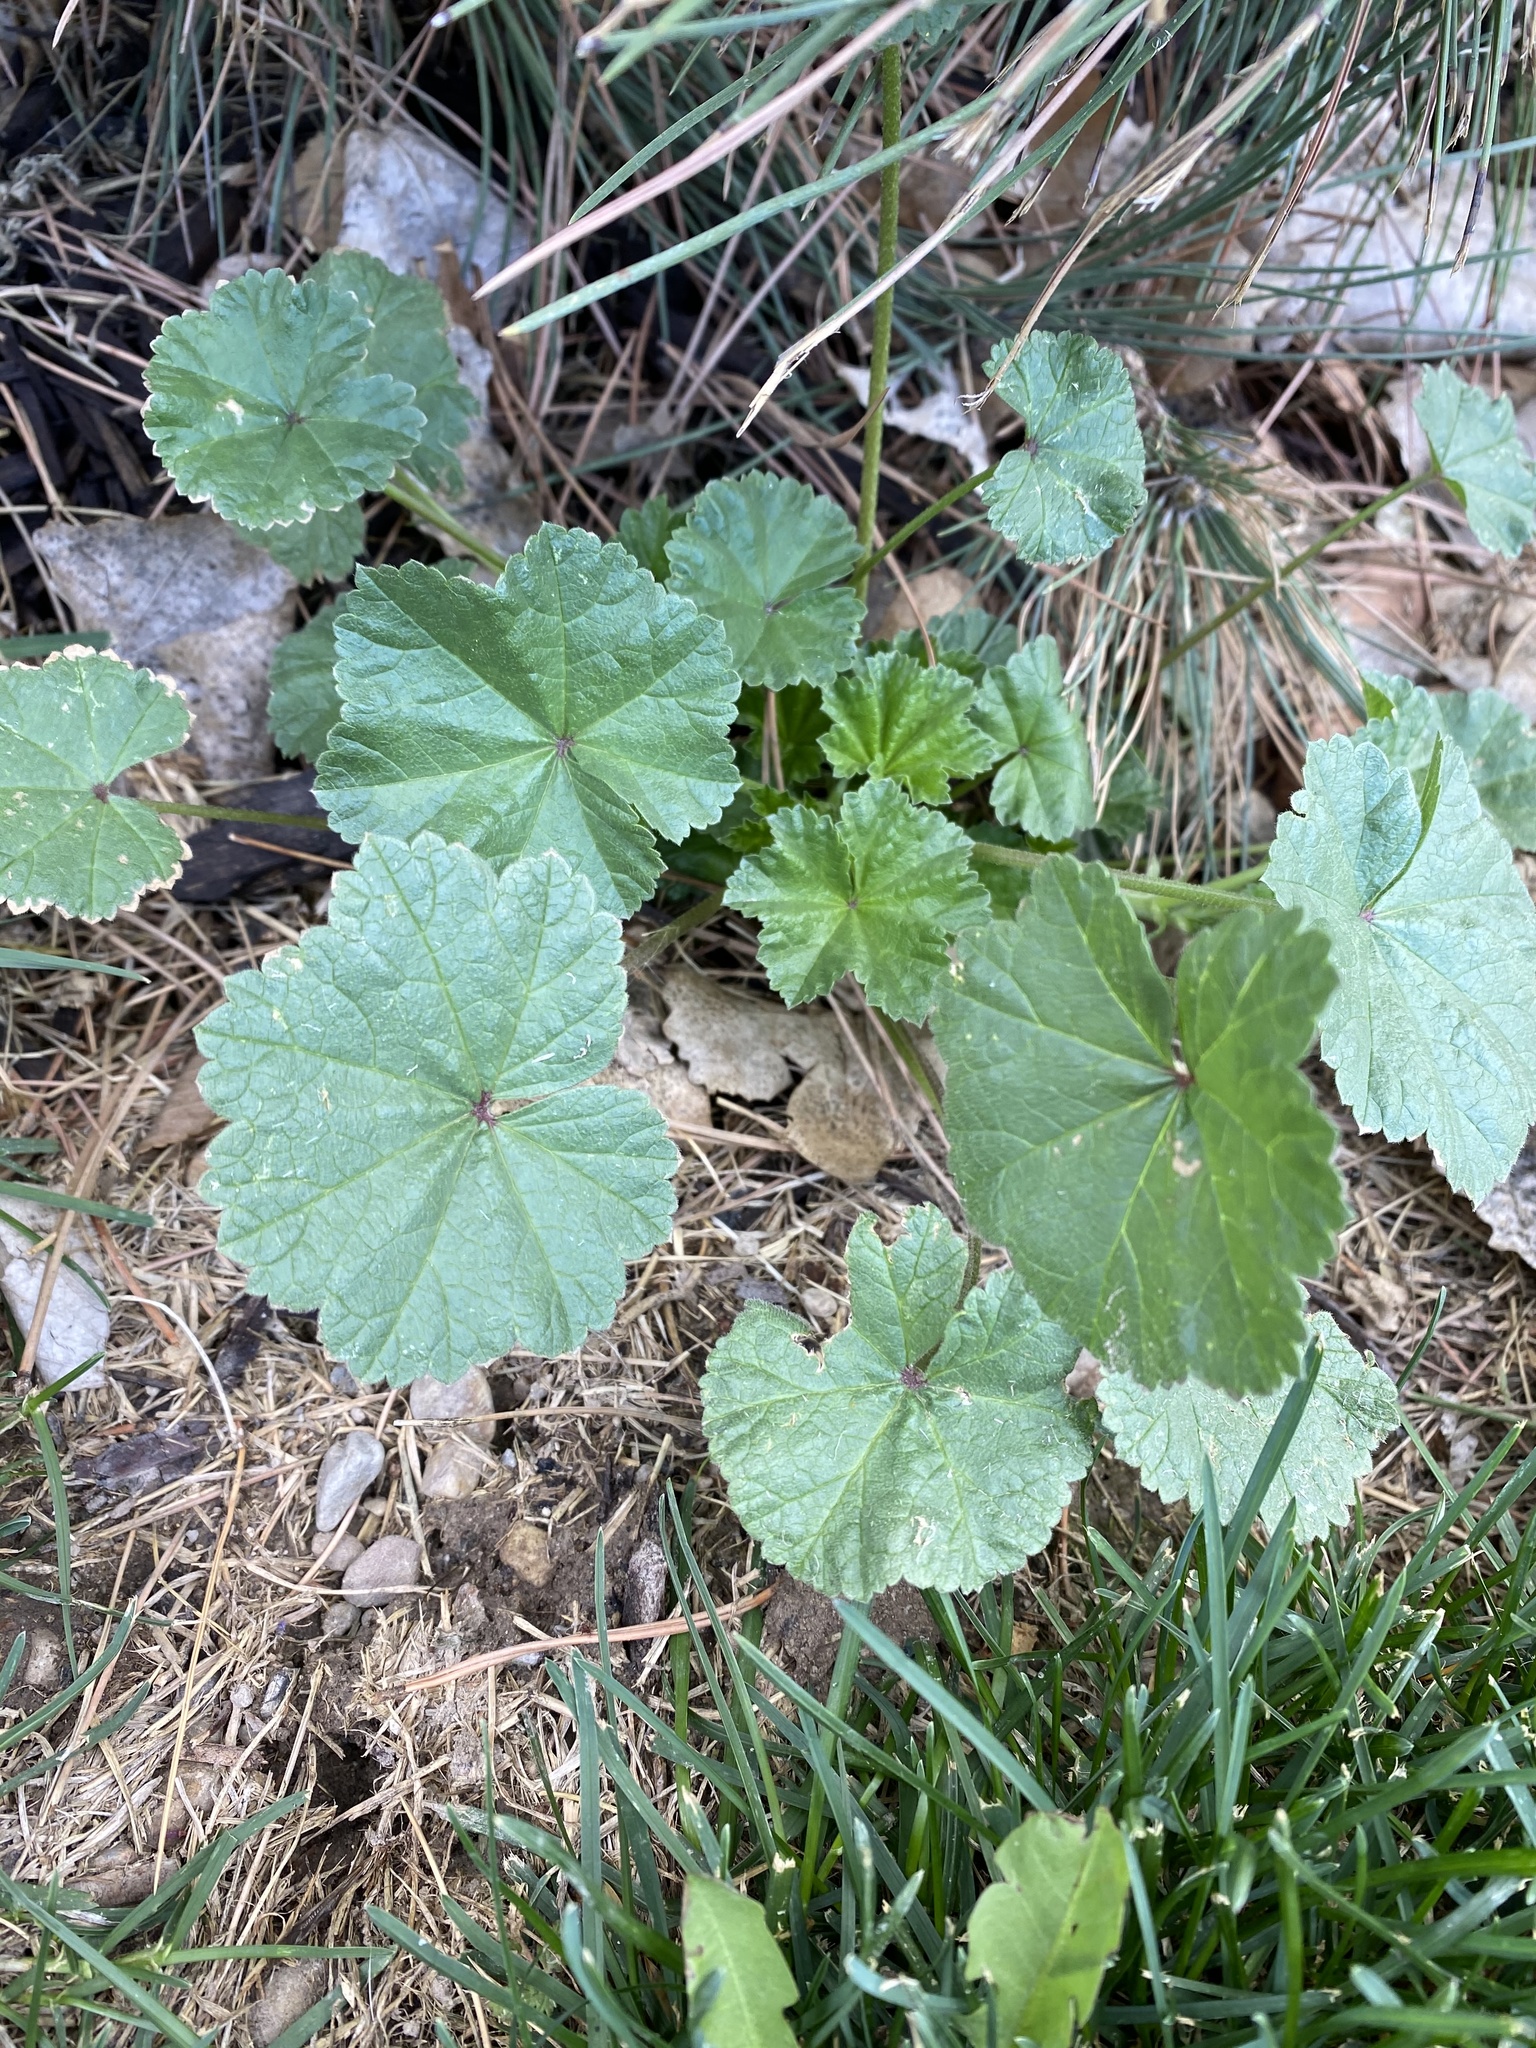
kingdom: Plantae
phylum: Tracheophyta
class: Magnoliopsida
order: Malvales
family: Malvaceae
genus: Malva
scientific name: Malva neglecta
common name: Common mallow
